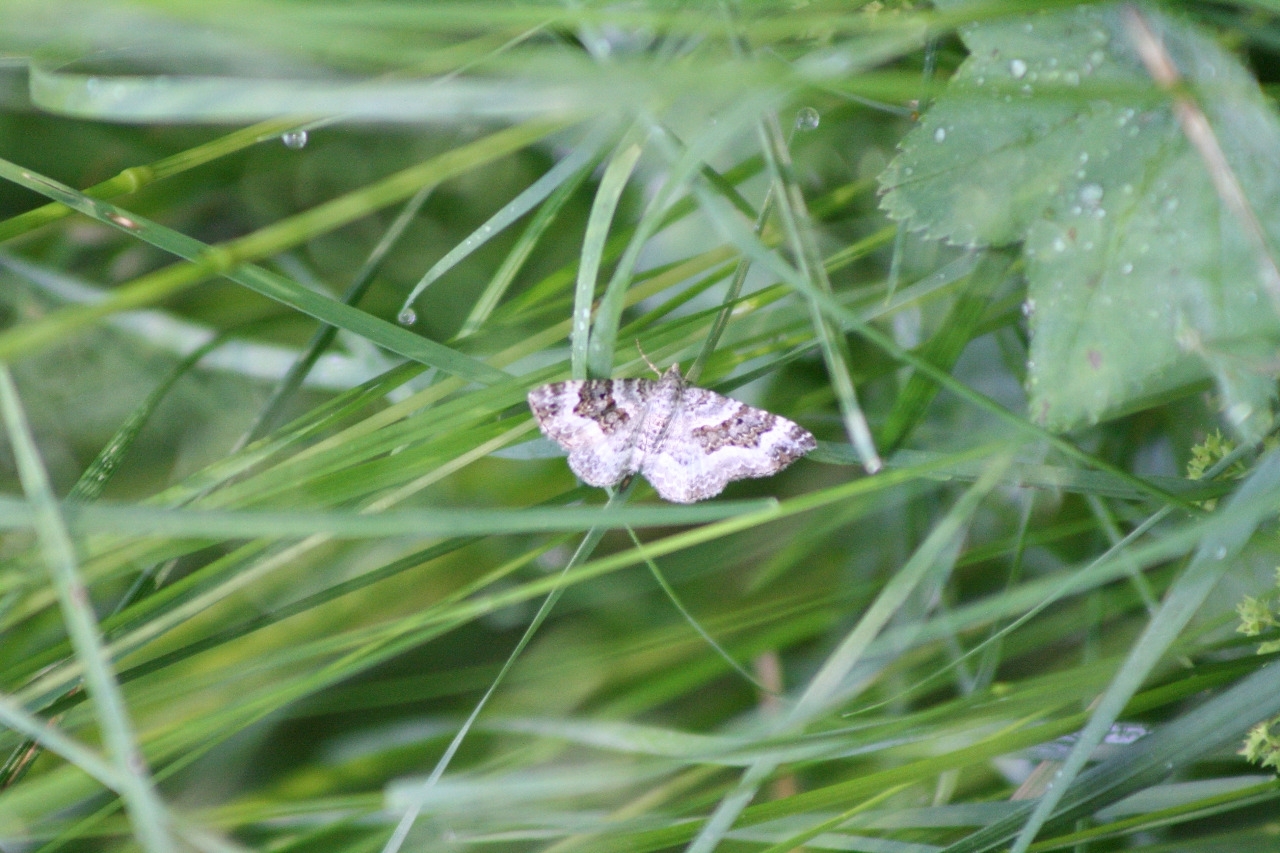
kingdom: Animalia
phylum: Arthropoda
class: Insecta
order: Lepidoptera
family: Geometridae
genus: Epirrhoe
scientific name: Epirrhoe alternata
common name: Common carpet
